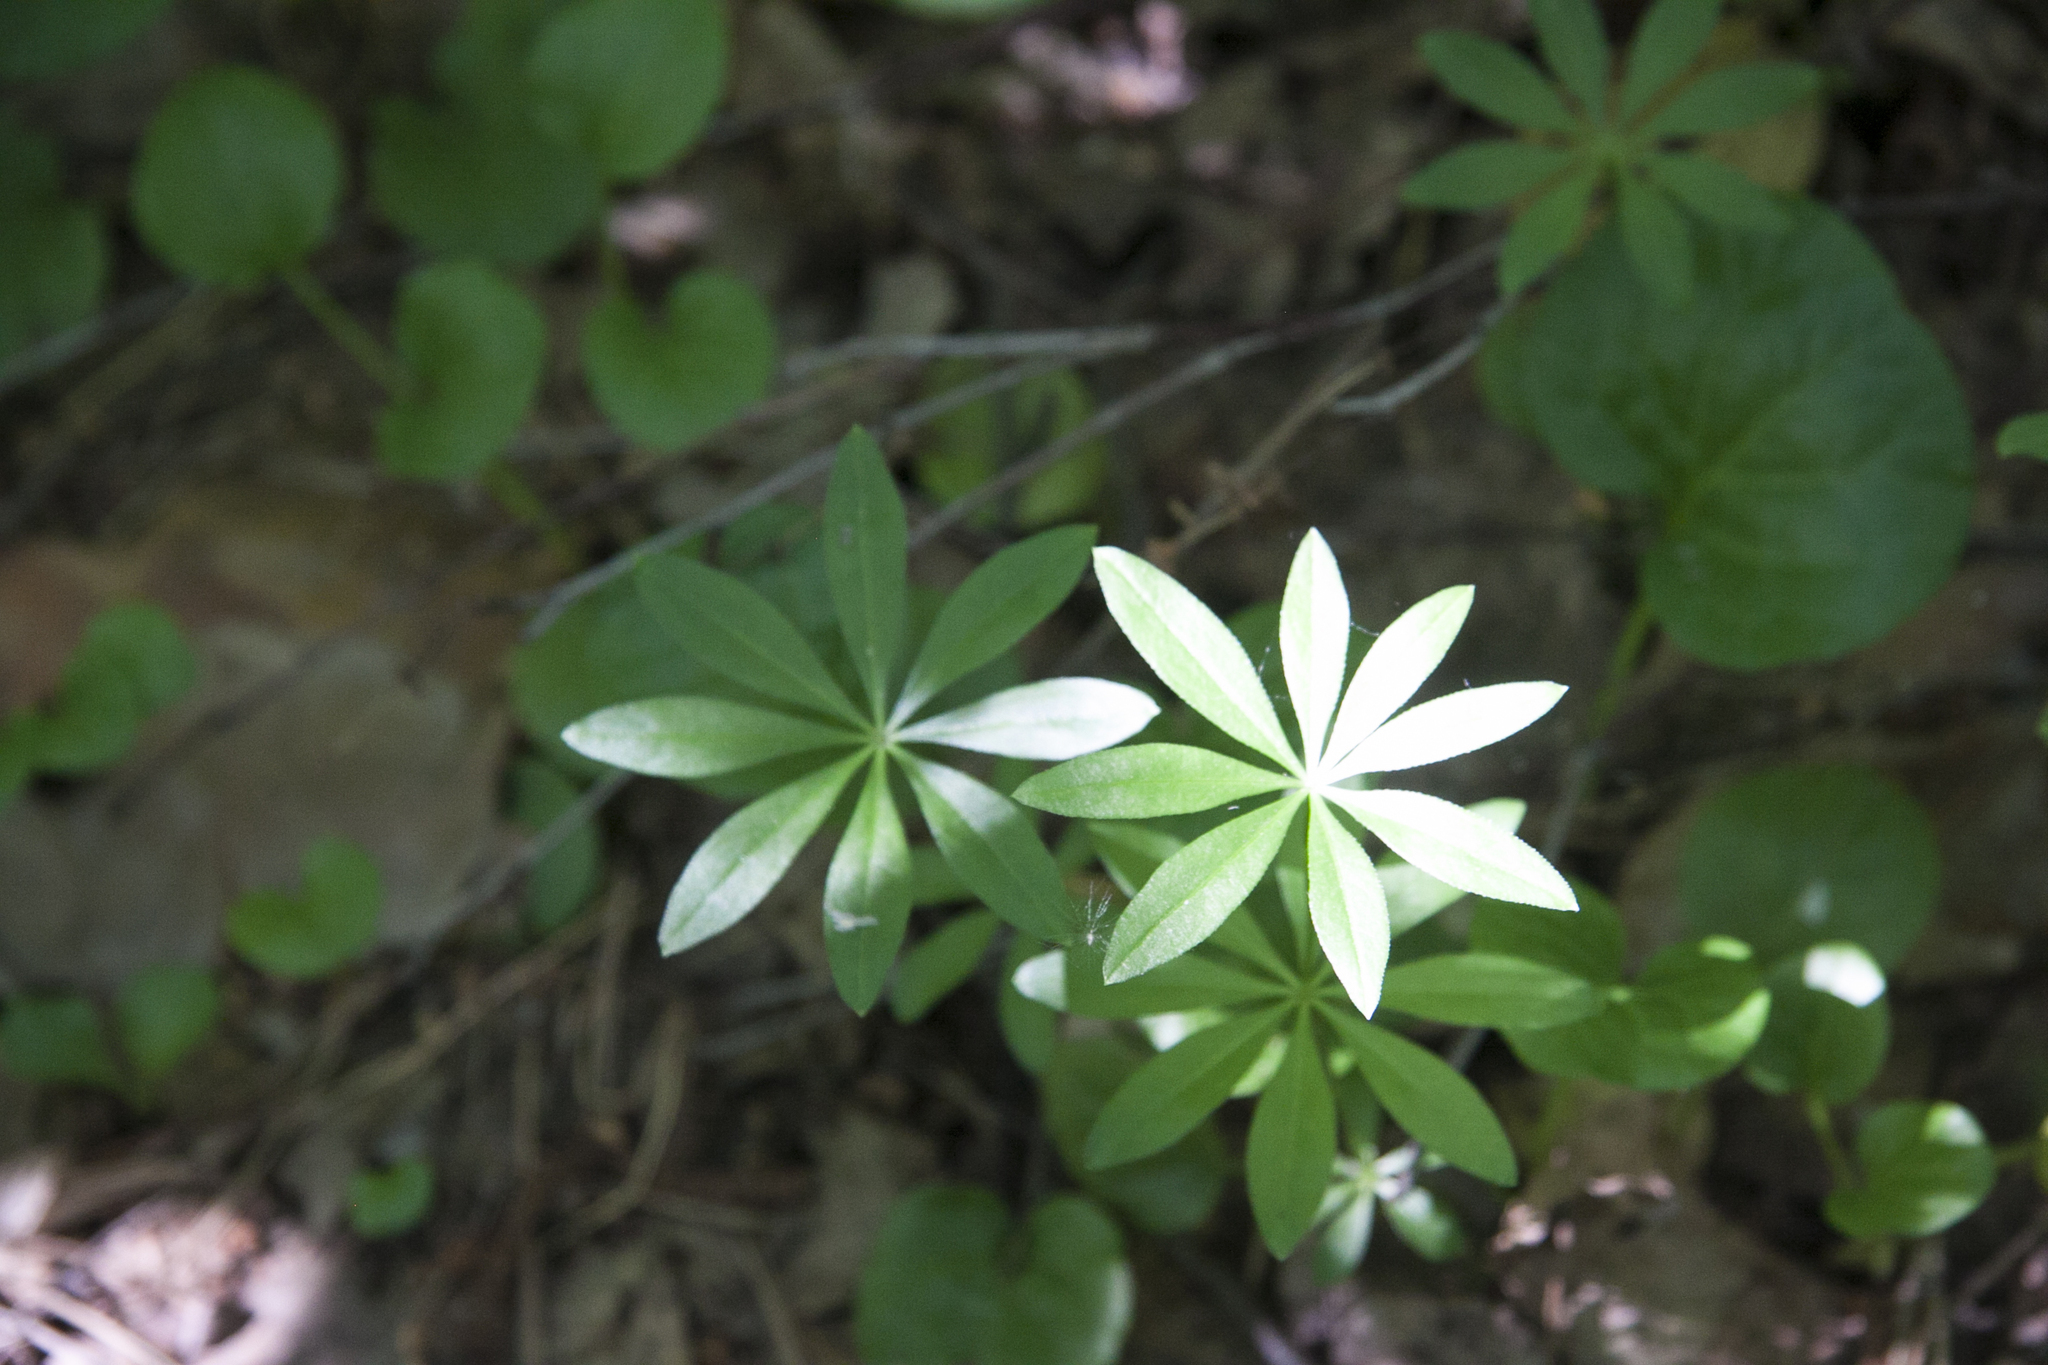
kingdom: Plantae
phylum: Tracheophyta
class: Magnoliopsida
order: Gentianales
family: Rubiaceae
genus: Galium
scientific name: Galium odoratum
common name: Sweet woodruff
